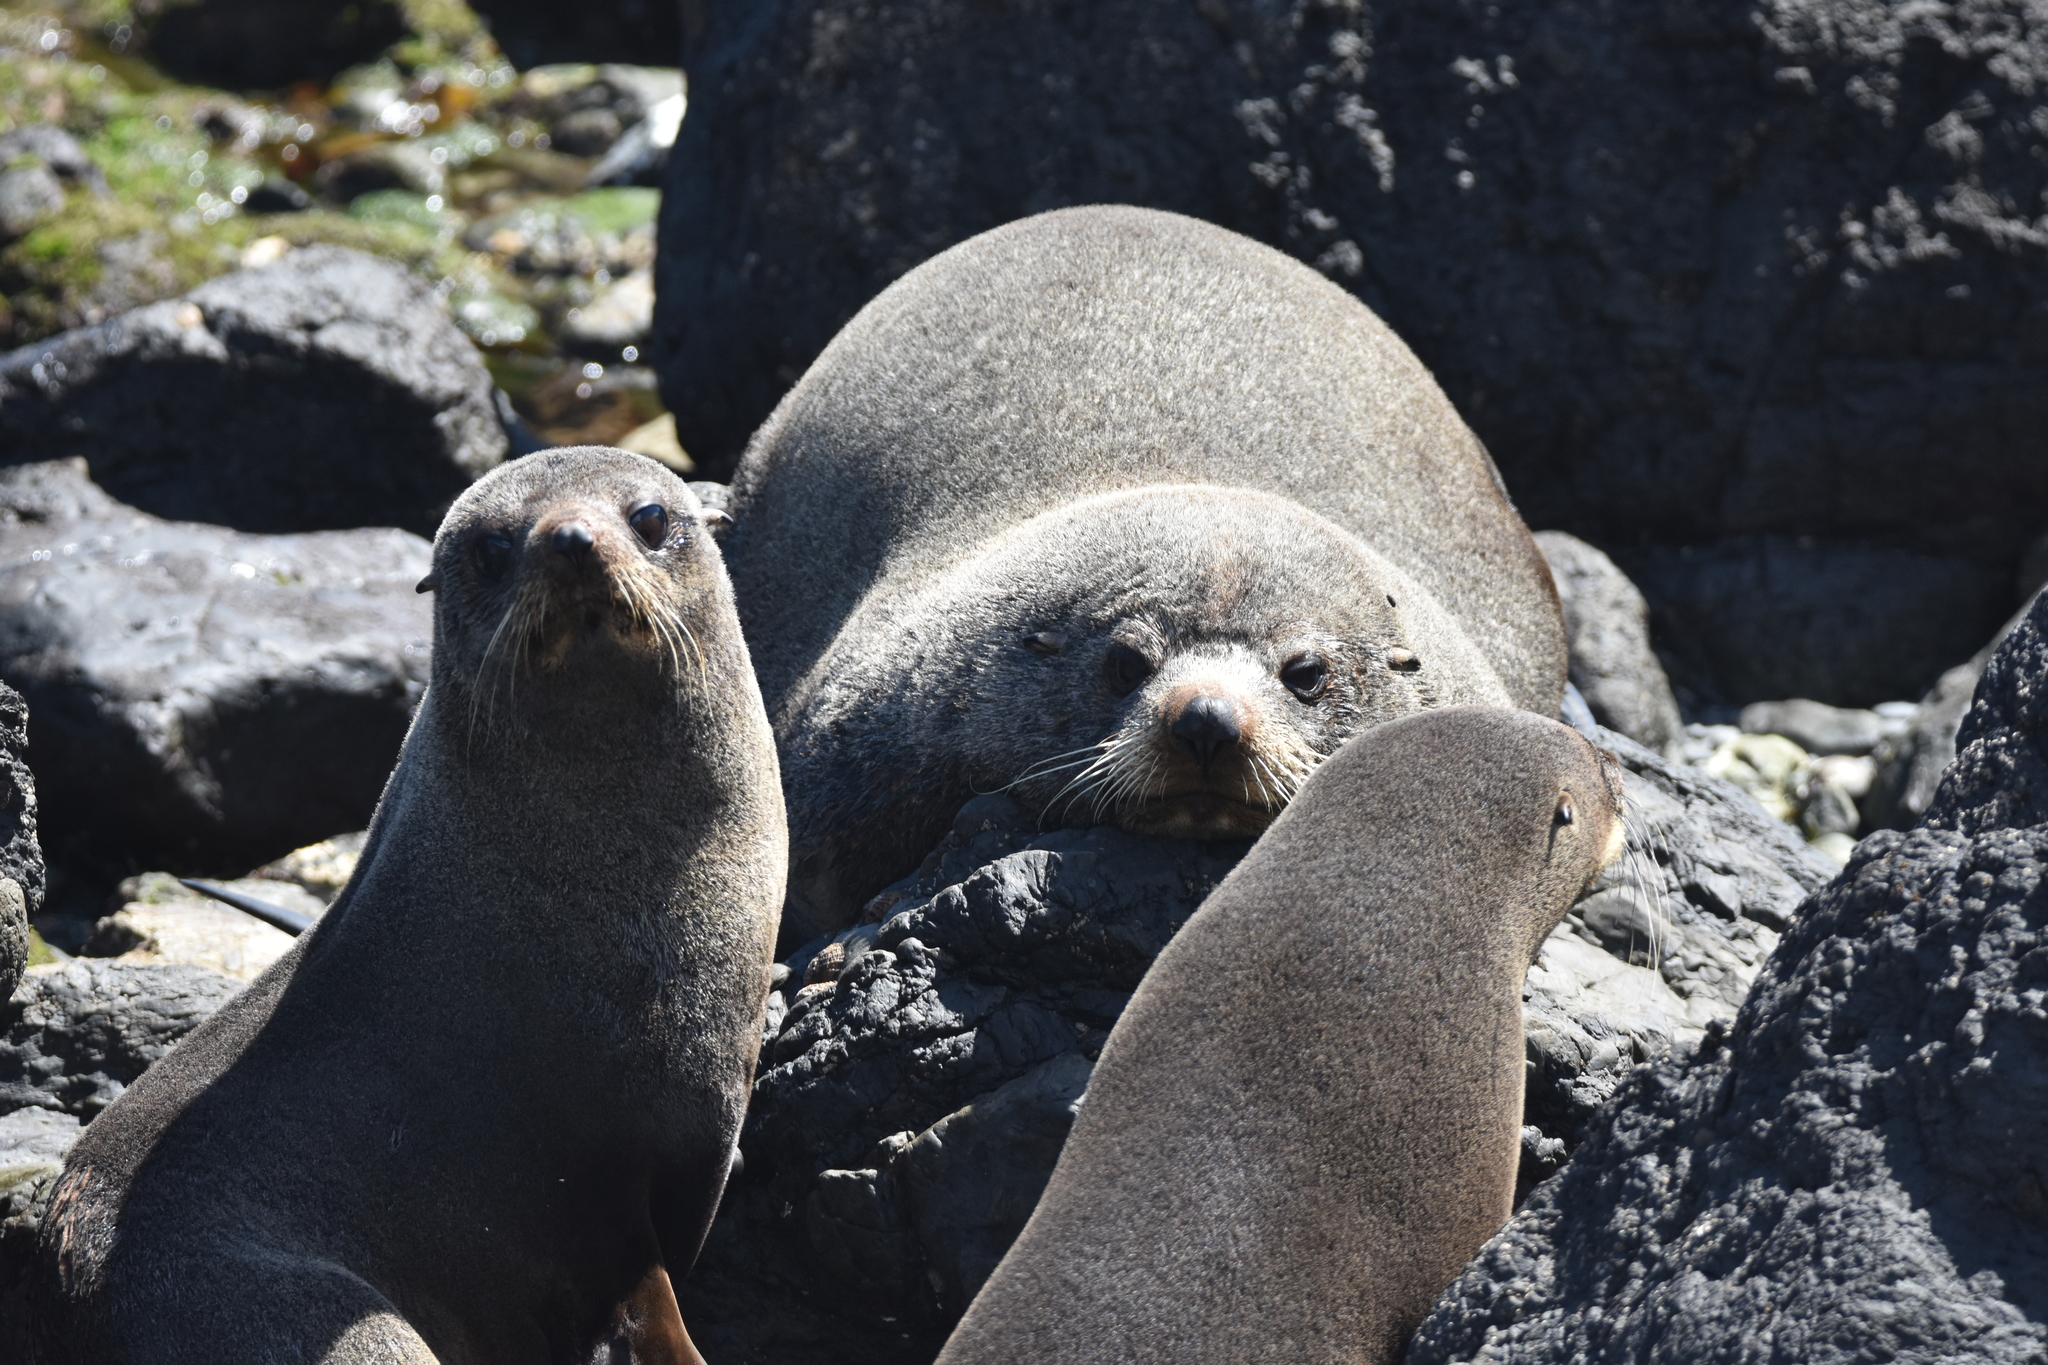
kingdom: Animalia
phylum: Chordata
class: Mammalia
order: Carnivora
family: Otariidae
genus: Arctocephalus
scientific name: Arctocephalus forsteri
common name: New zealand fur seal
